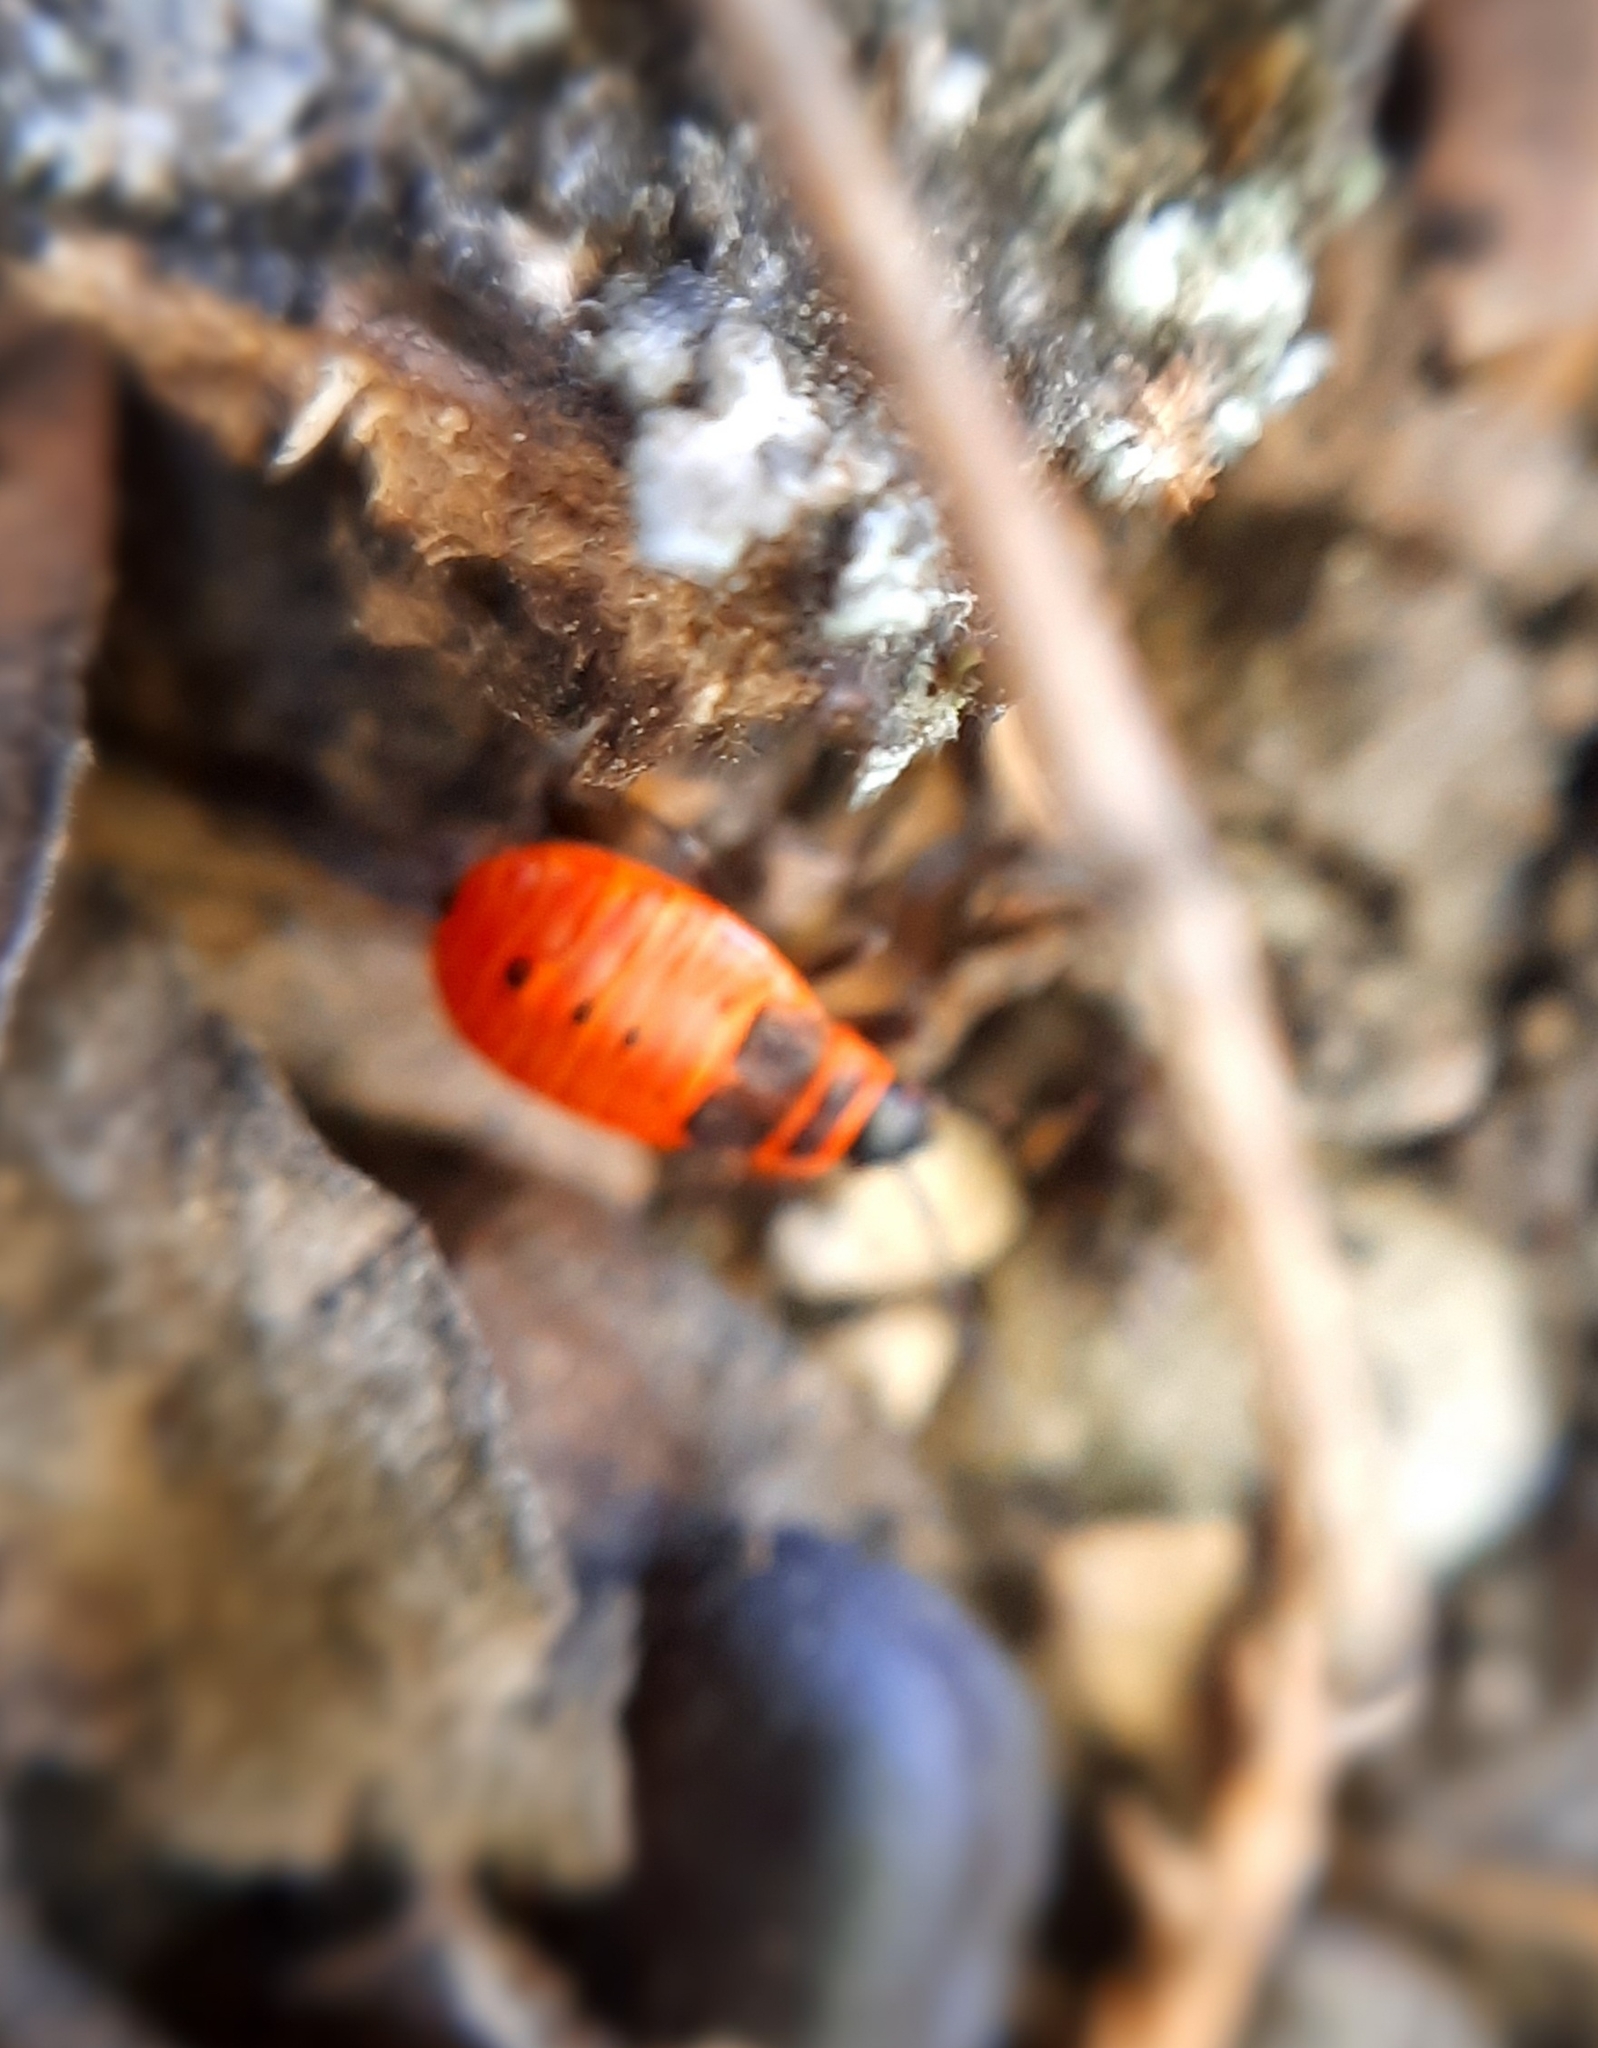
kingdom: Animalia
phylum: Arthropoda
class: Insecta
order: Hemiptera
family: Pyrrhocoridae
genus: Pyrrhocoris
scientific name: Pyrrhocoris apterus
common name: Firebug
